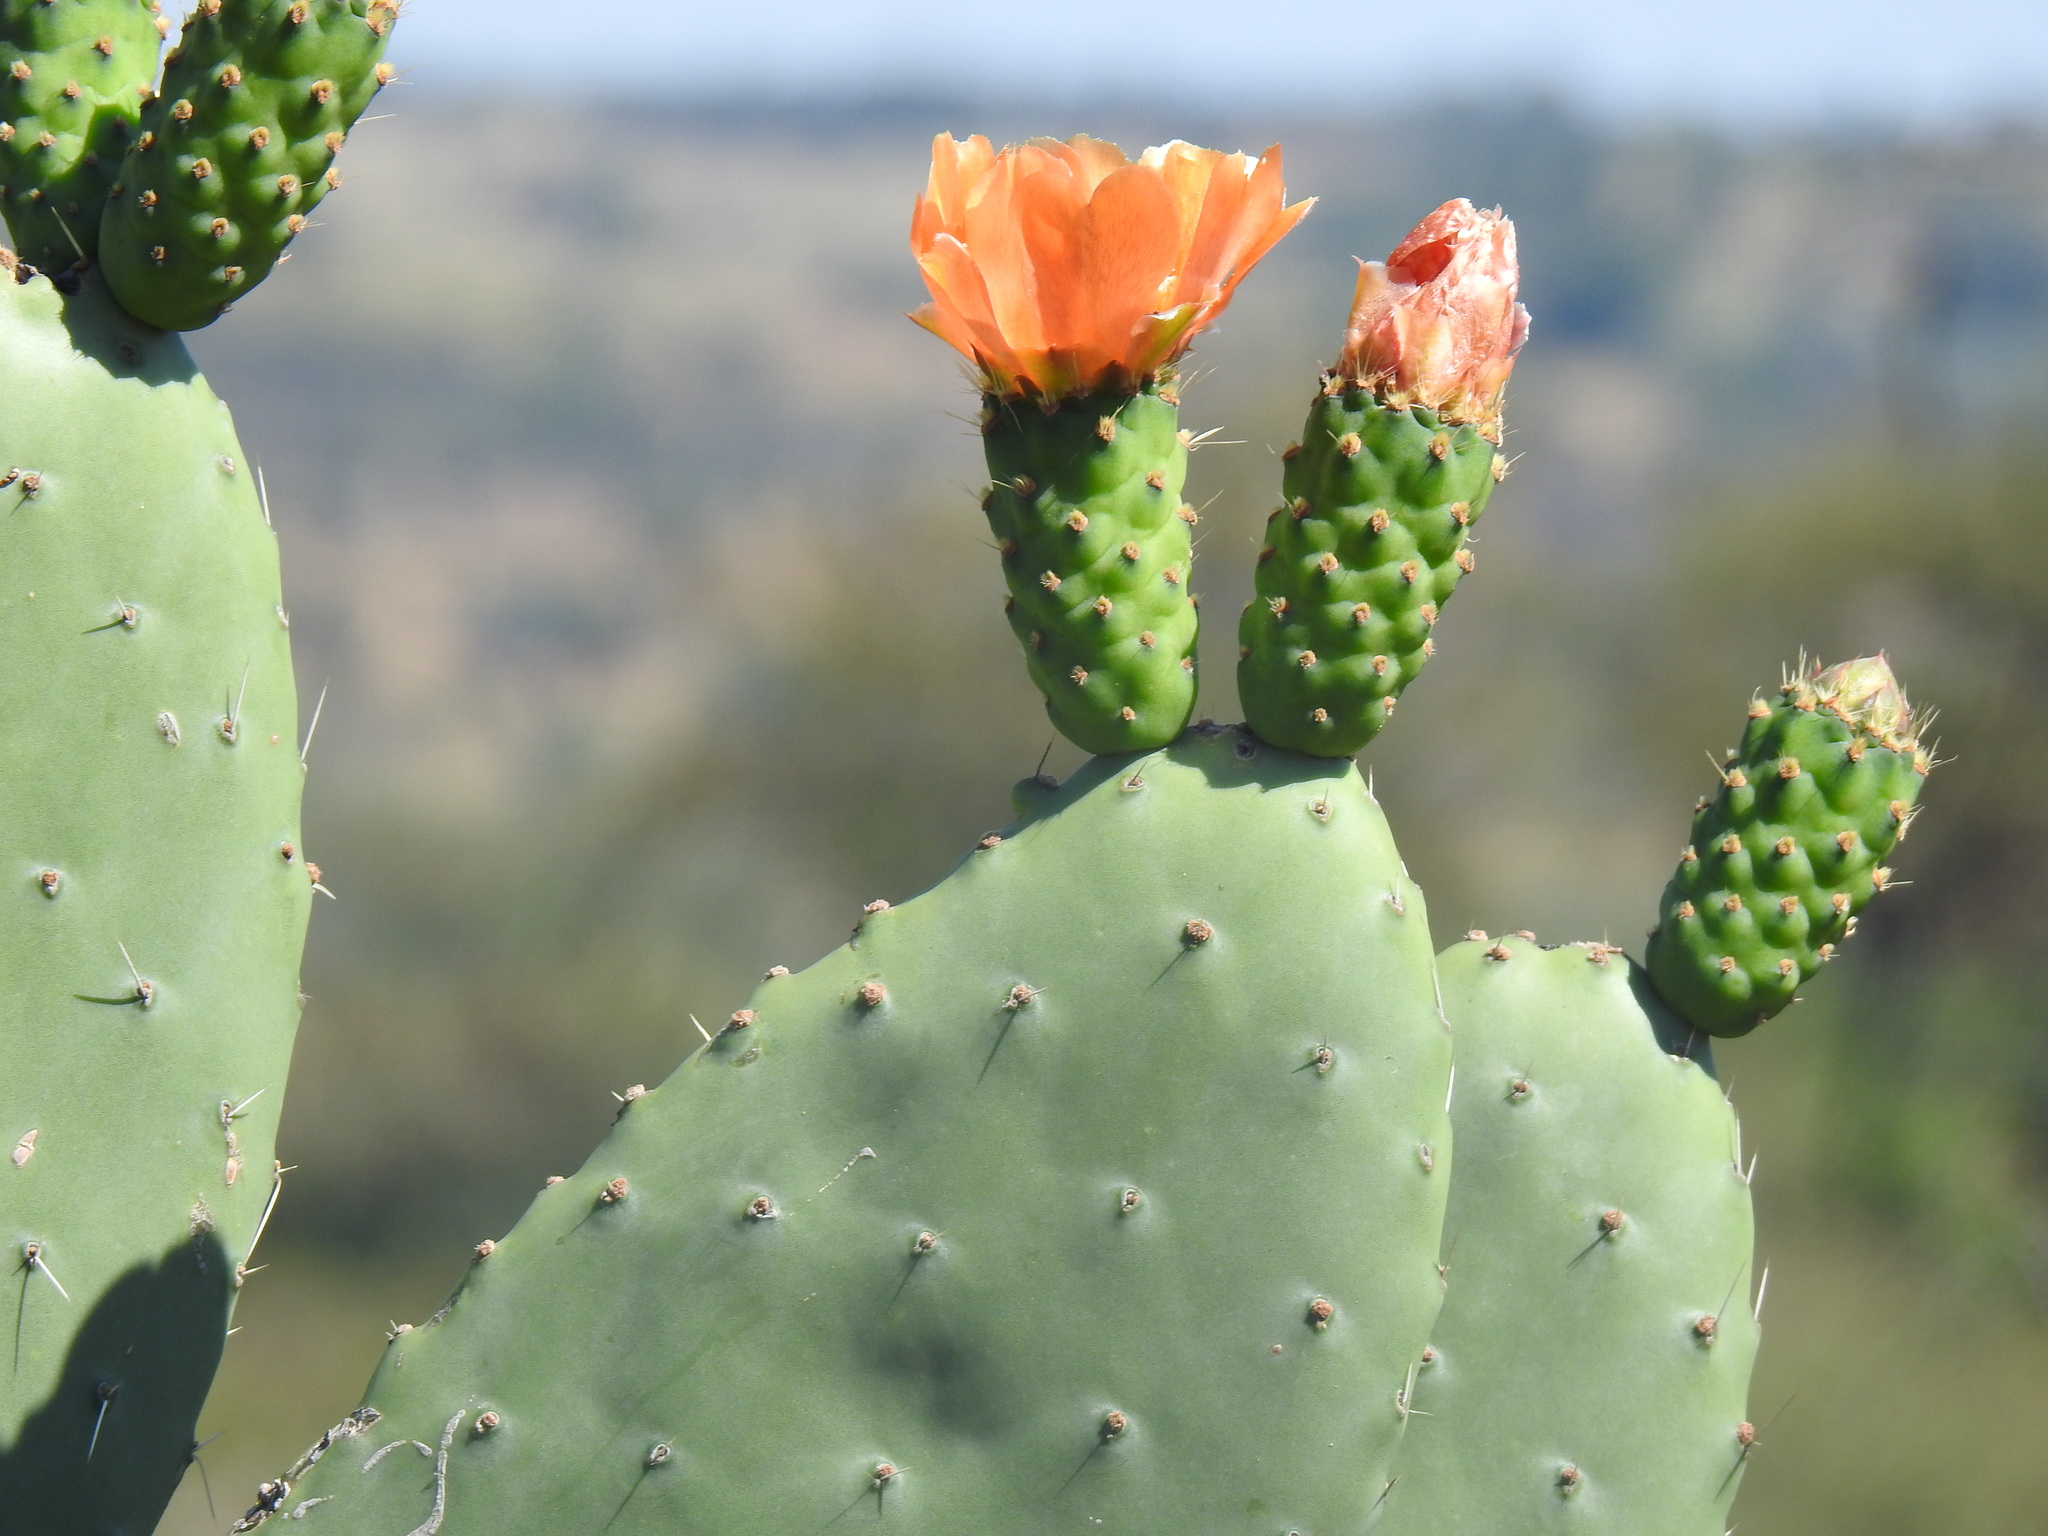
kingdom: Plantae
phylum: Tracheophyta
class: Magnoliopsida
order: Caryophyllales
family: Cactaceae
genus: Opuntia
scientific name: Opuntia ficus-indica
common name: Barbary fig
